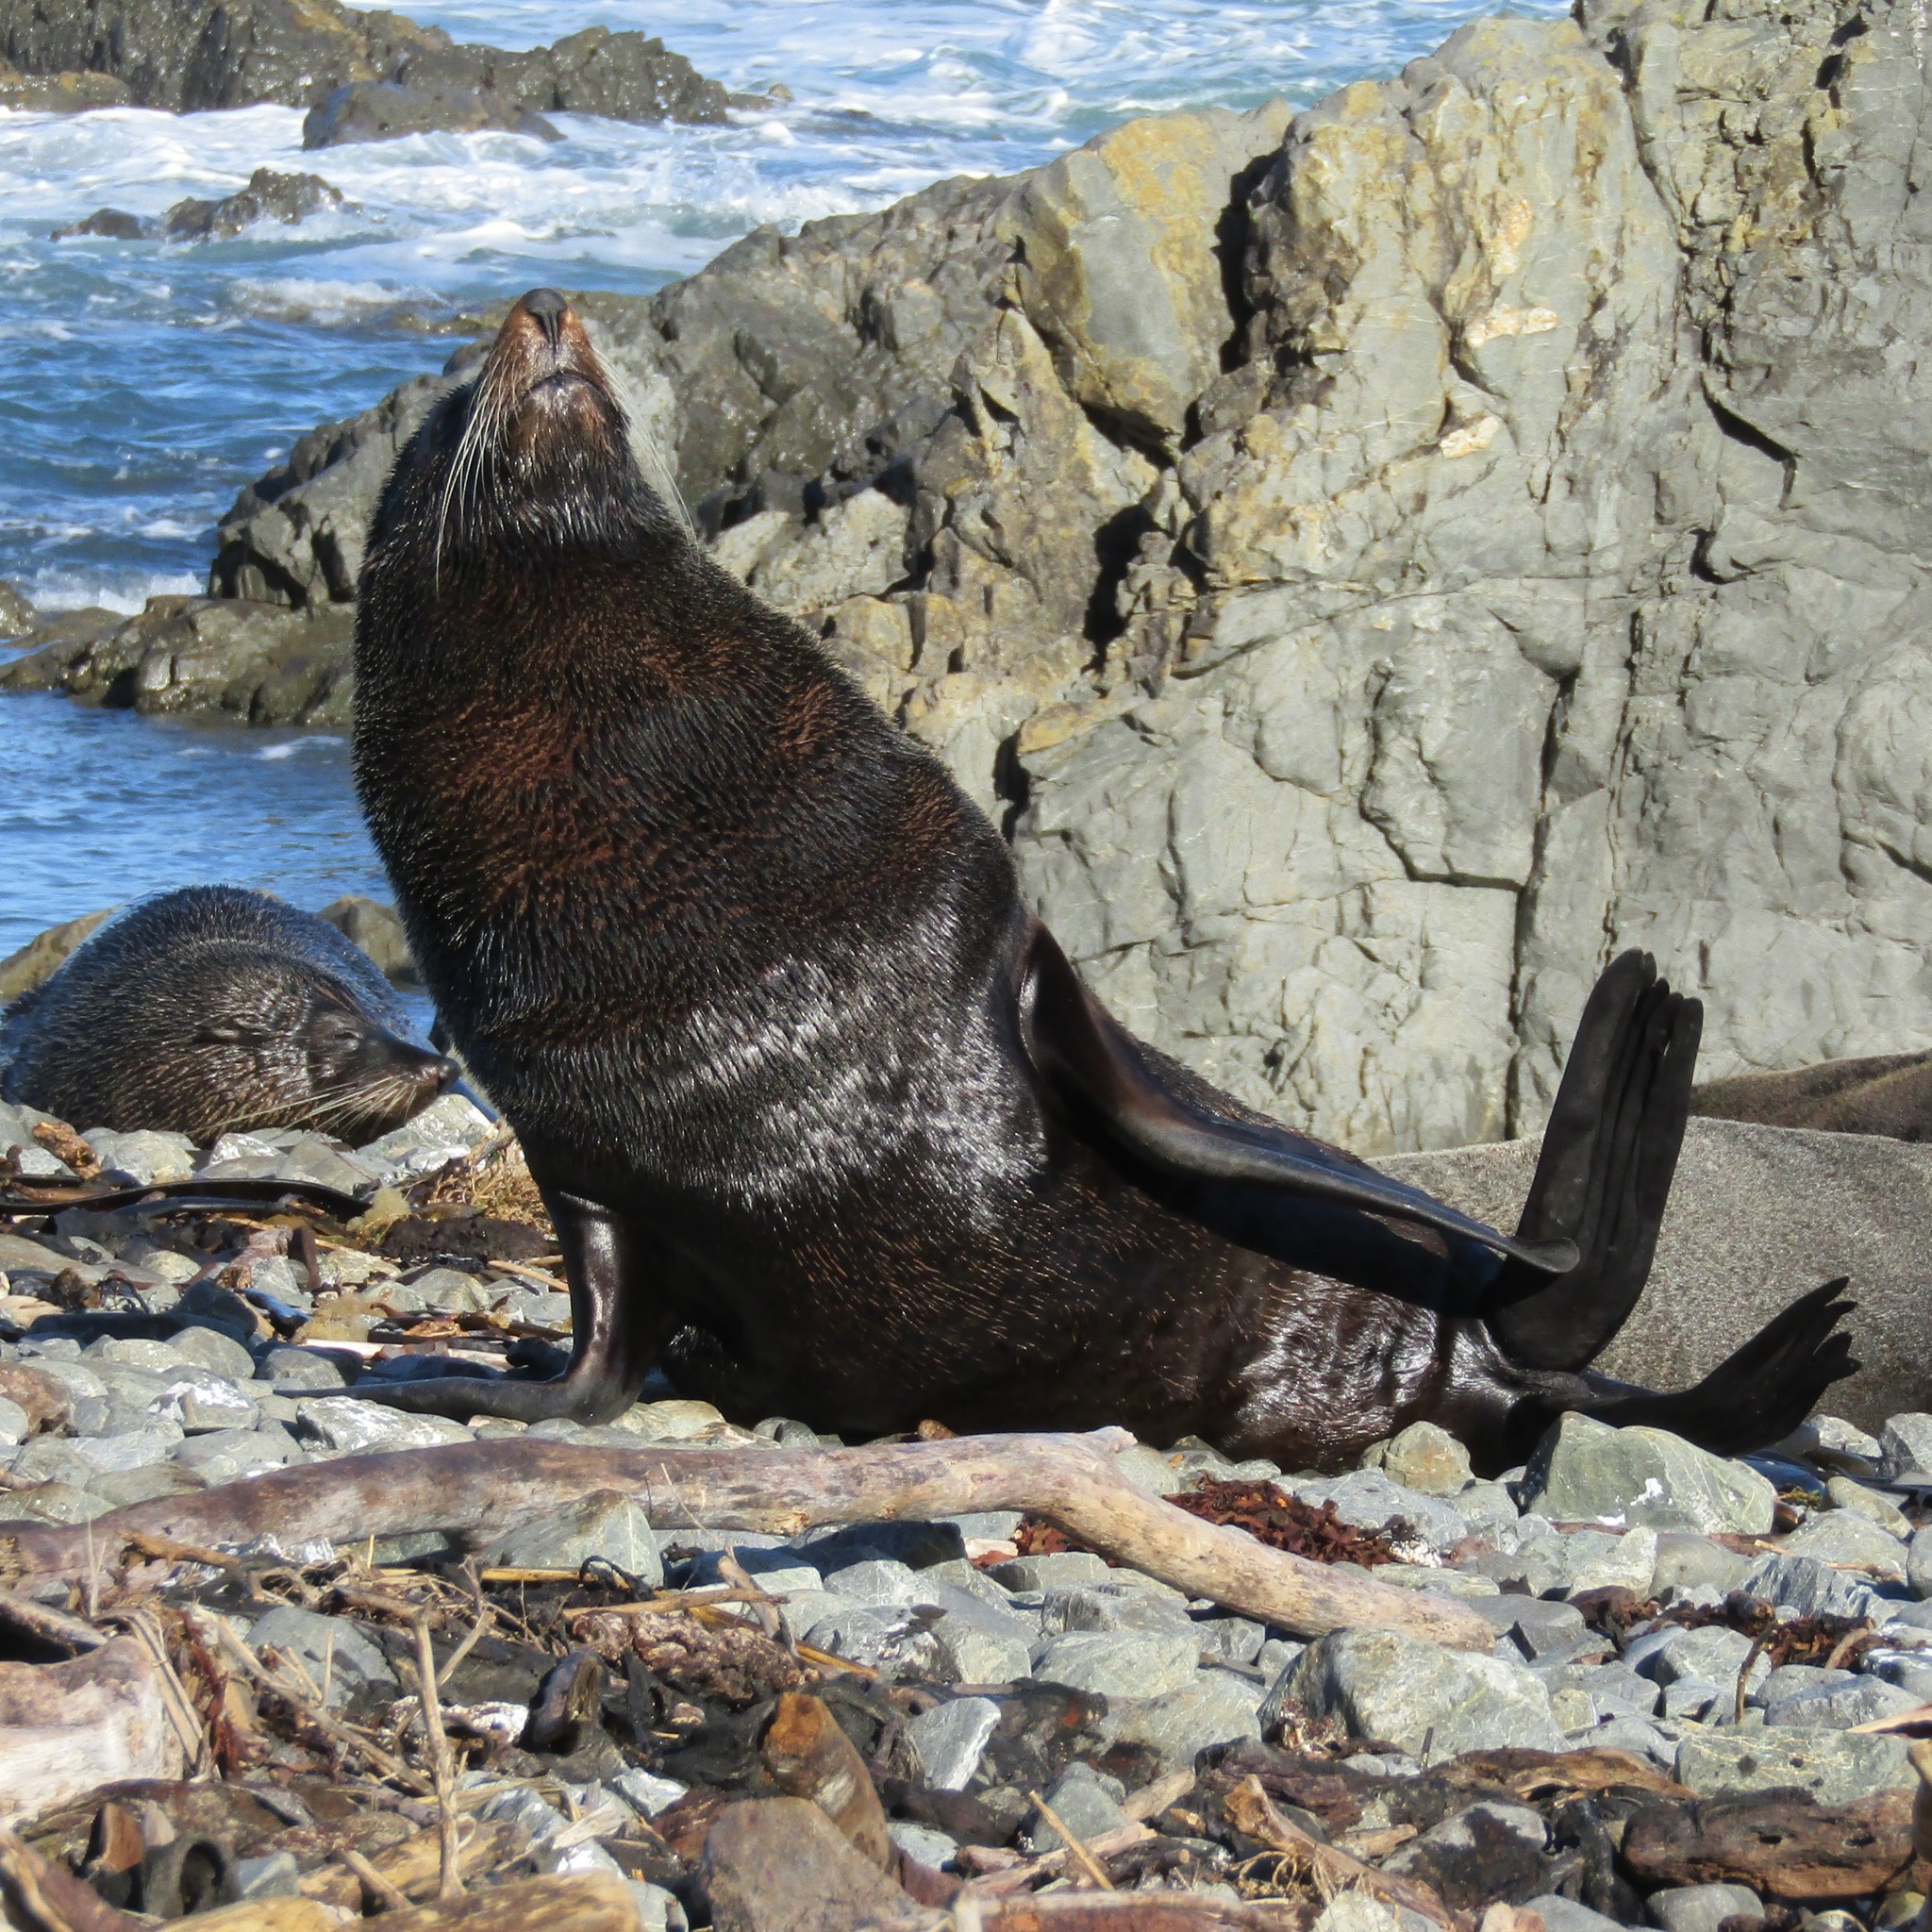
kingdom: Animalia
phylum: Chordata
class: Mammalia
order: Carnivora
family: Otariidae
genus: Arctocephalus
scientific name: Arctocephalus forsteri
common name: New zealand fur seal
